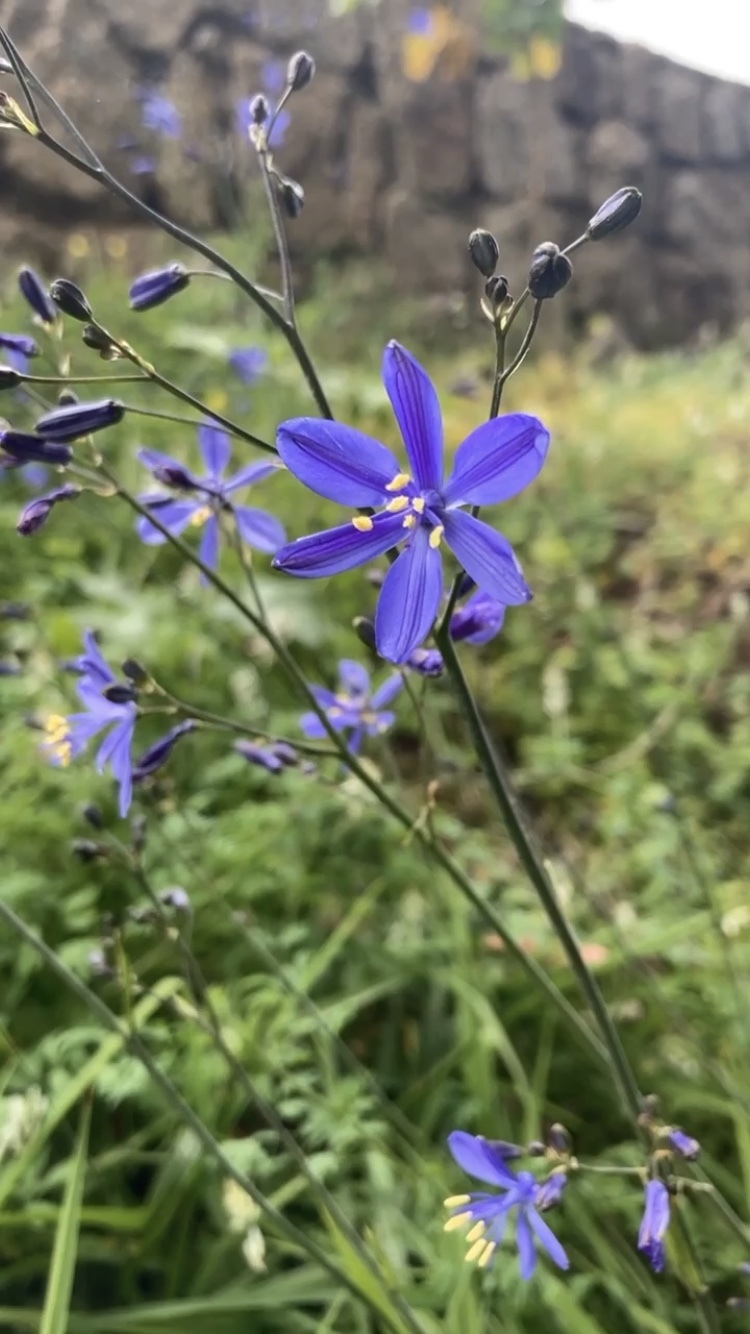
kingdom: Plantae
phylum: Tracheophyta
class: Liliopsida
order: Asparagales
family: Asphodelaceae
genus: Pasithea
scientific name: Pasithea caerulea
